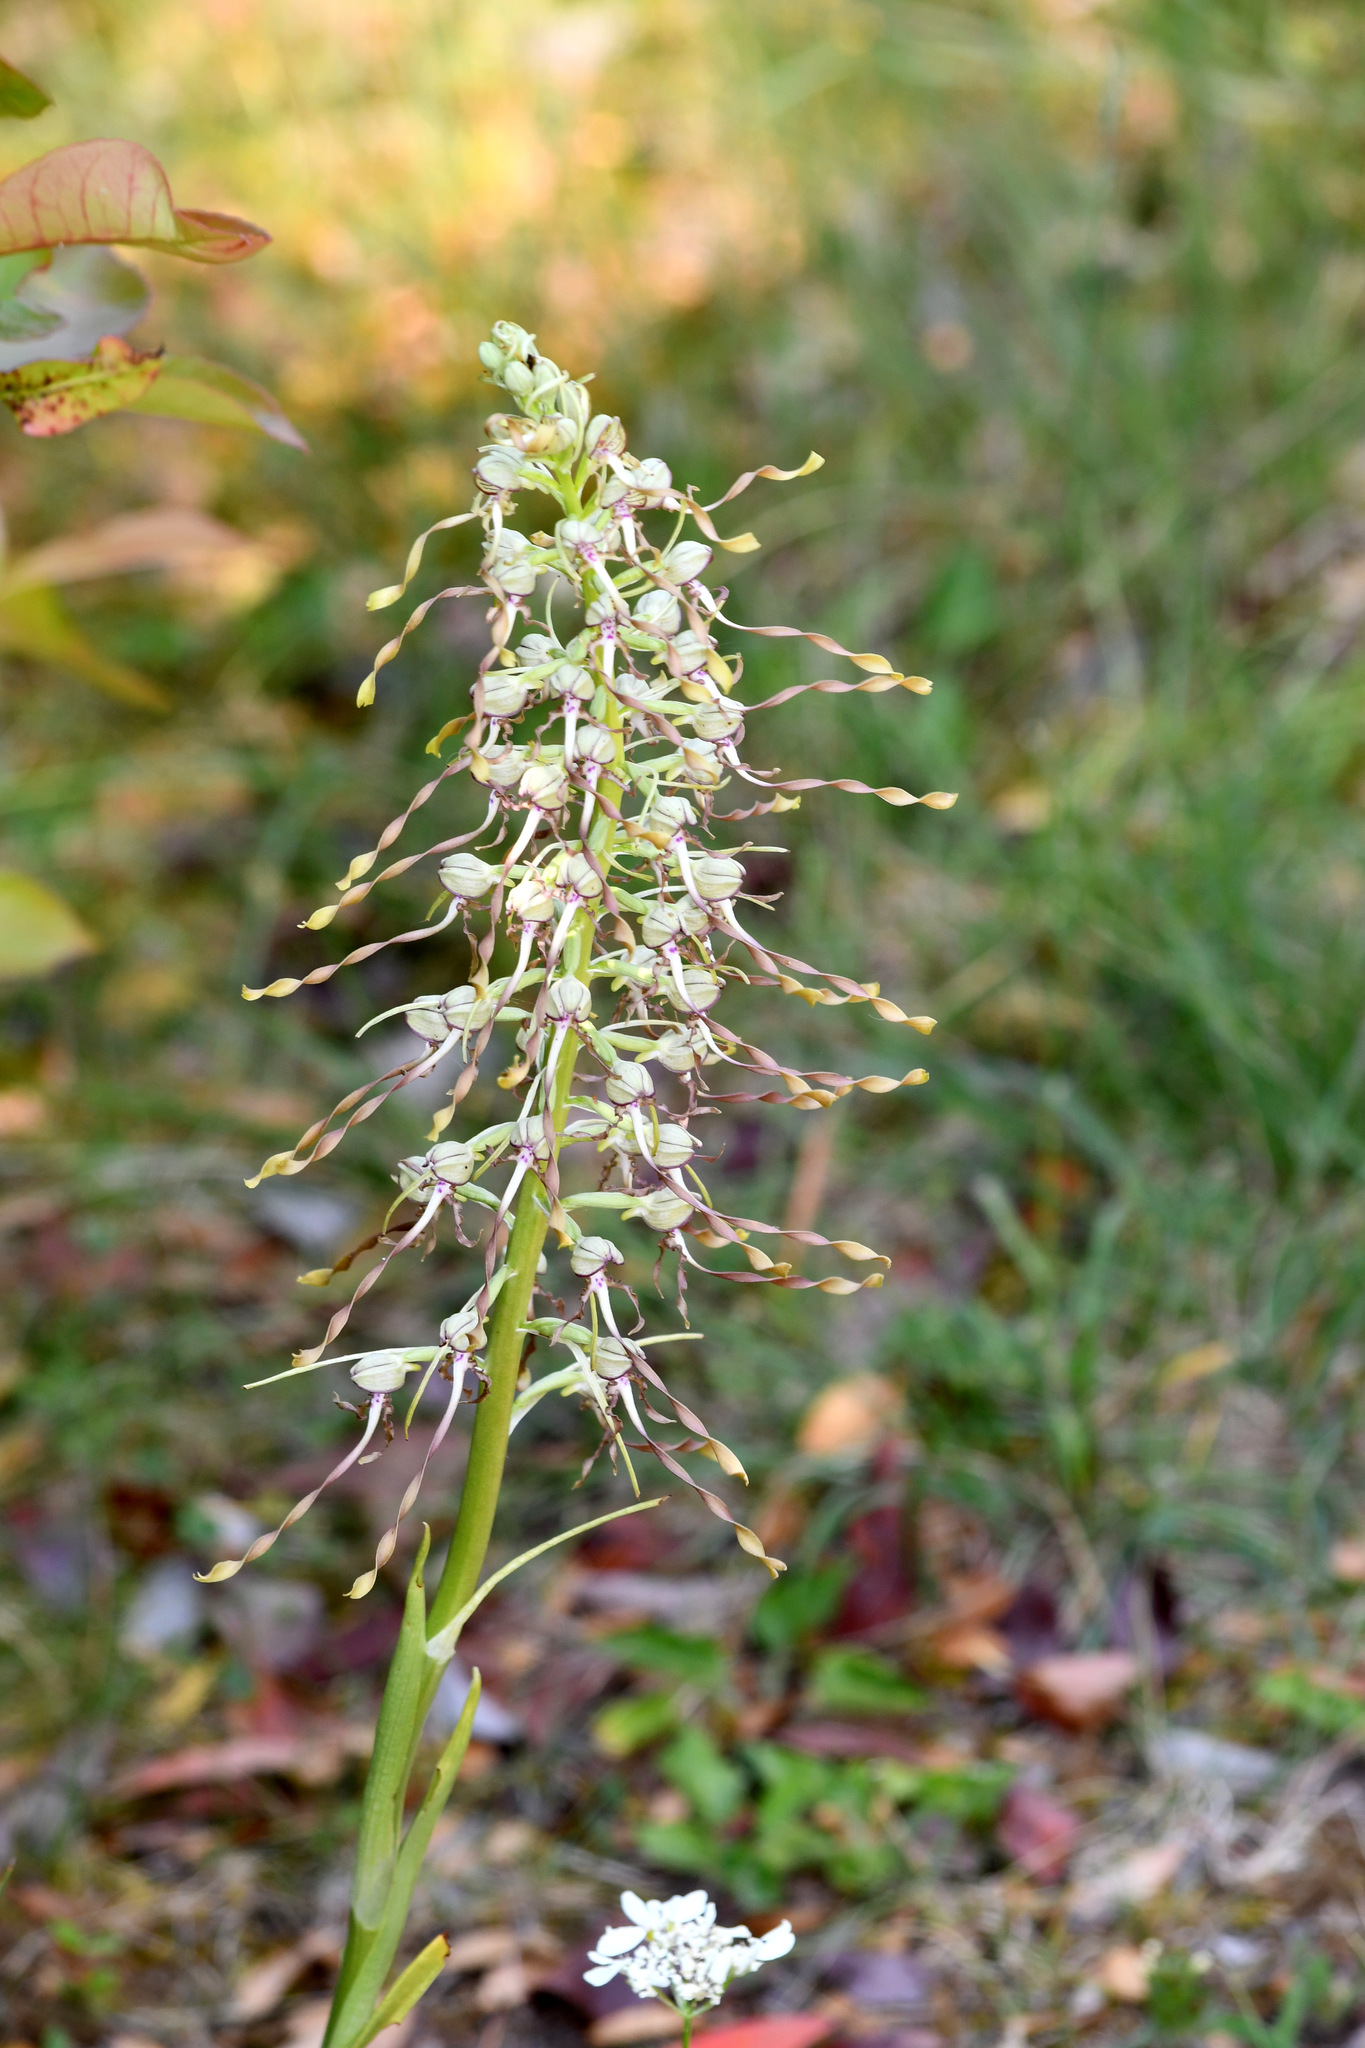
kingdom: Plantae
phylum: Tracheophyta
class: Liliopsida
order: Asparagales
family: Orchidaceae
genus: Himantoglossum
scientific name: Himantoglossum hircinum
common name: Lizard orchid
